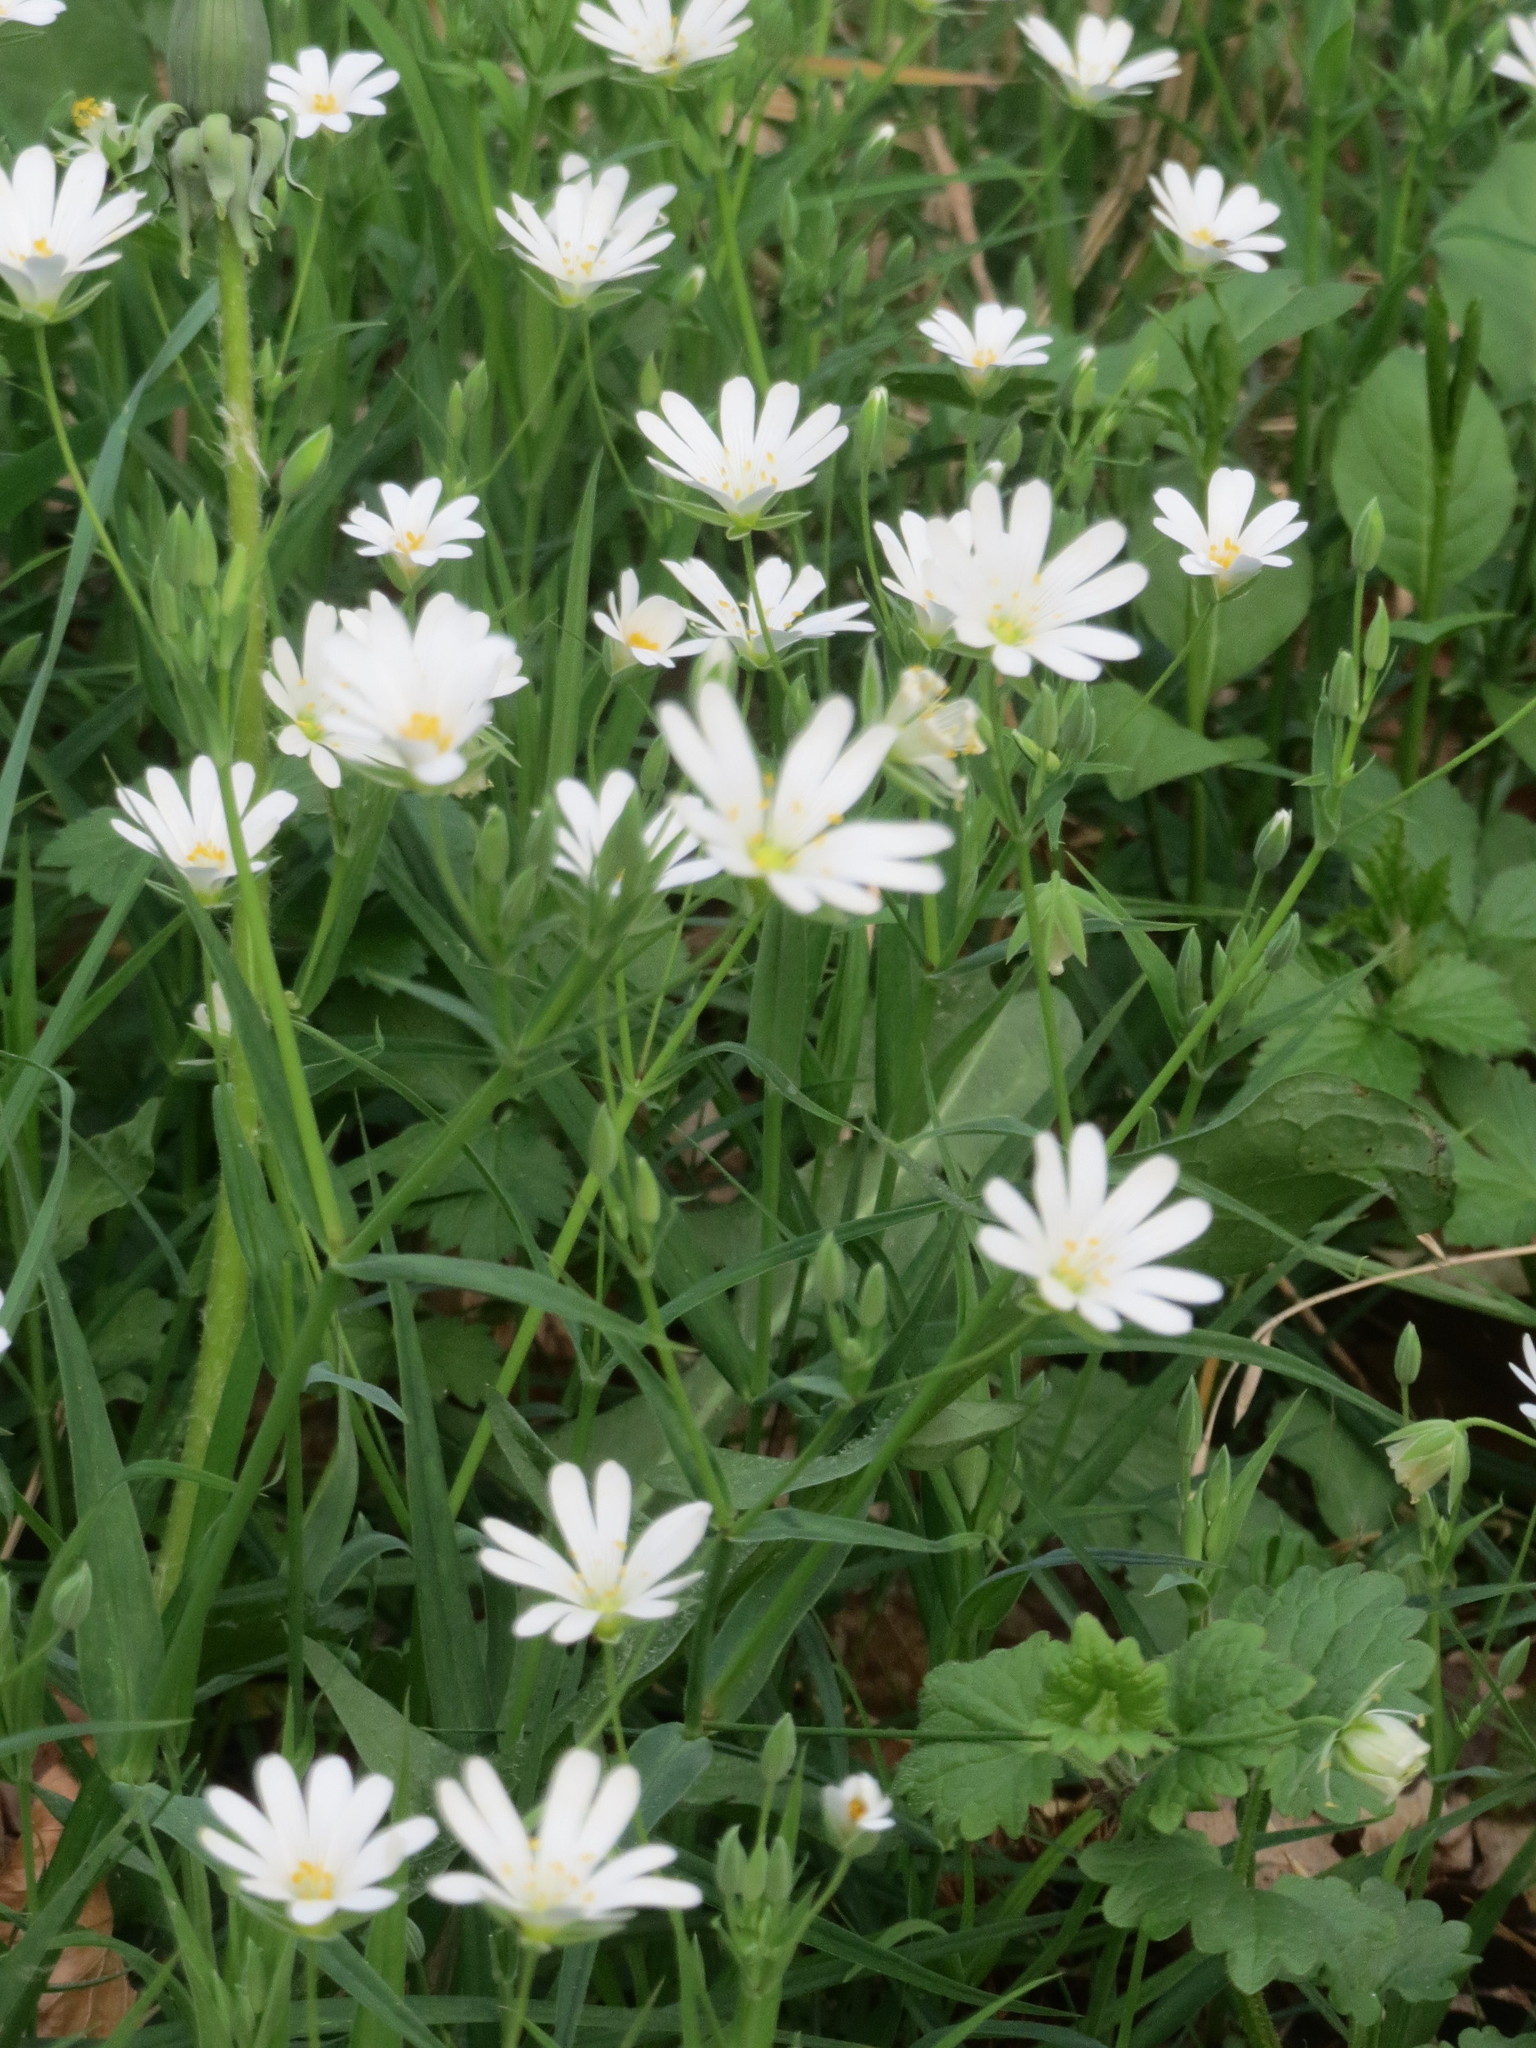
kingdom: Plantae
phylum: Tracheophyta
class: Magnoliopsida
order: Caryophyllales
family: Caryophyllaceae
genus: Rabelera
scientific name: Rabelera holostea
